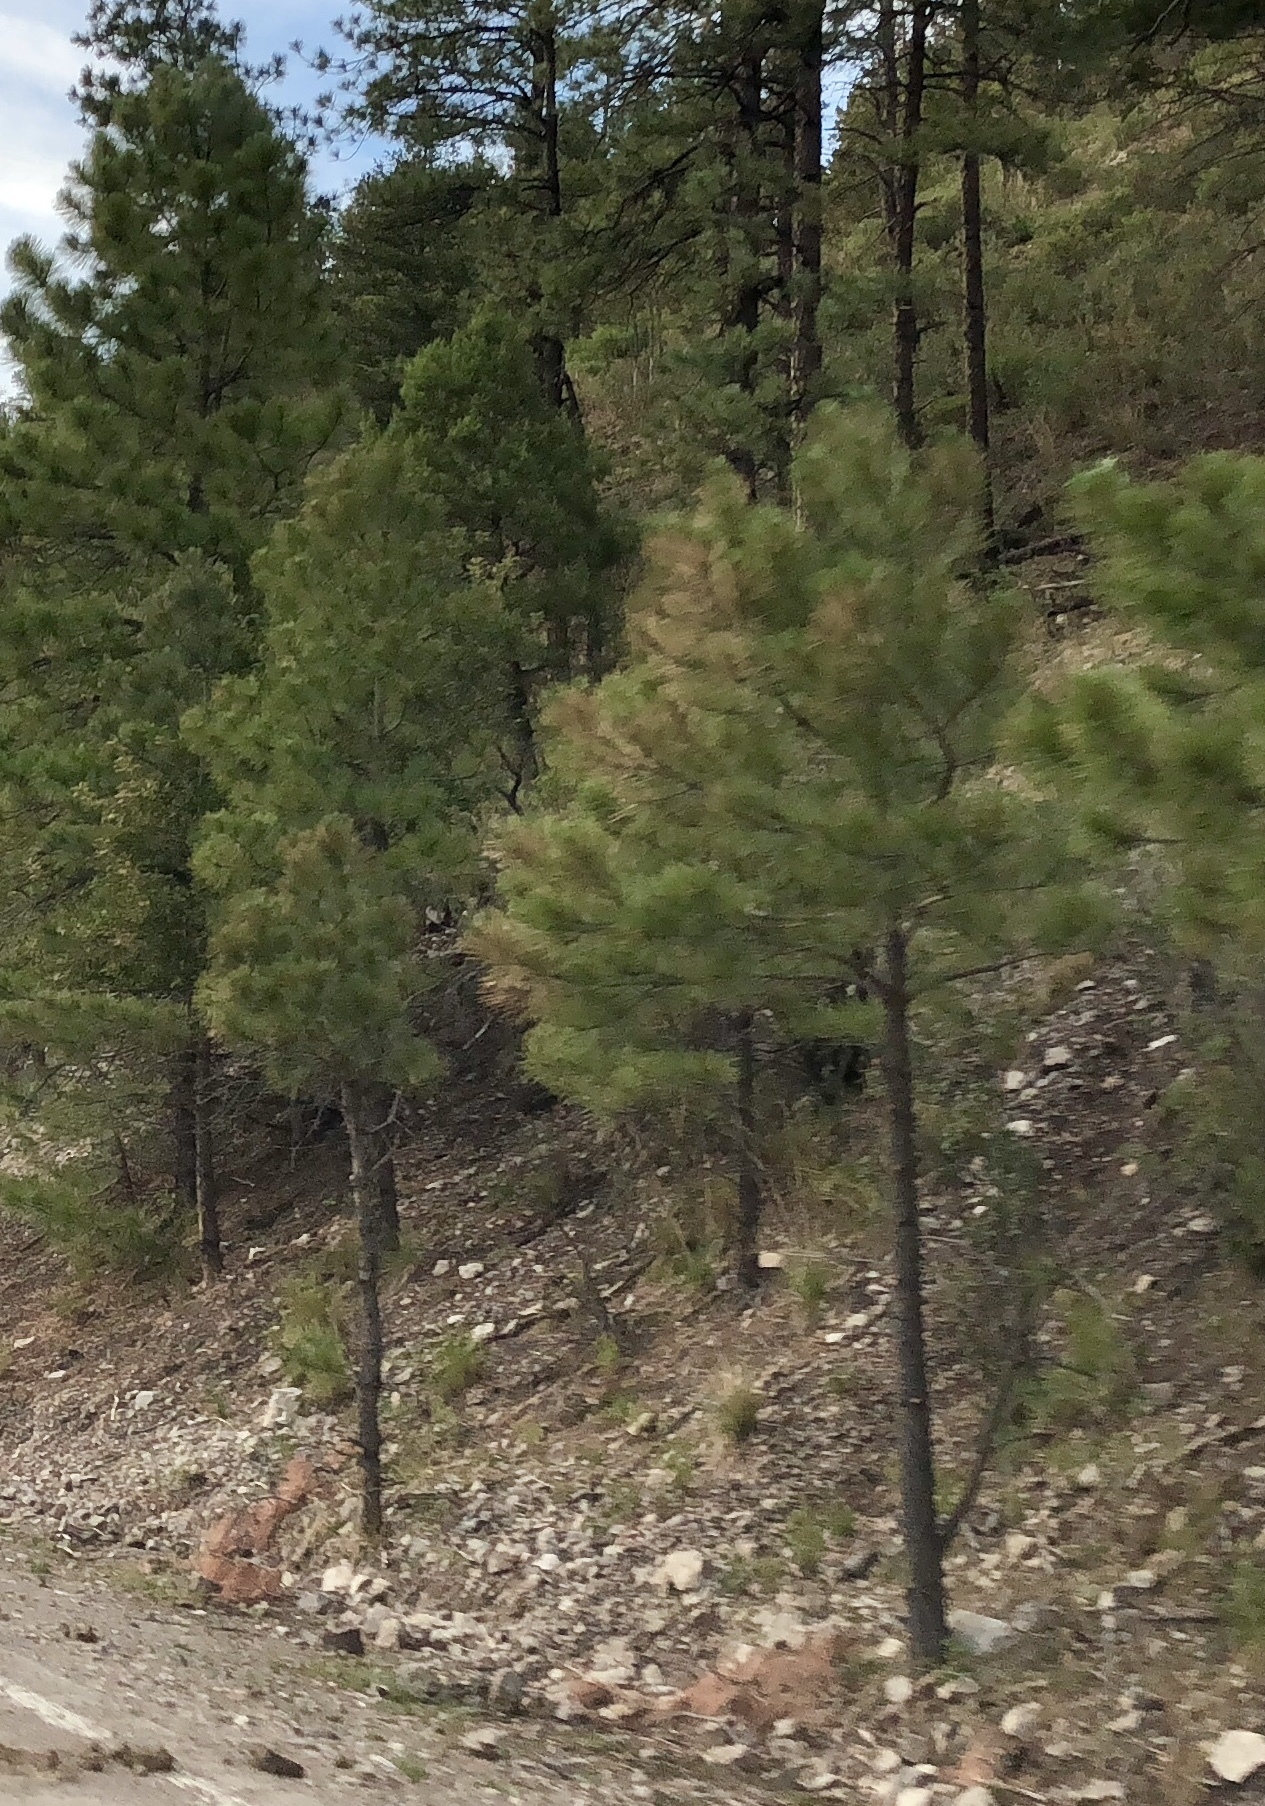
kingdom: Plantae
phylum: Tracheophyta
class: Pinopsida
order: Pinales
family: Pinaceae
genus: Pinus
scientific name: Pinus ponderosa
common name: Western yellow-pine
